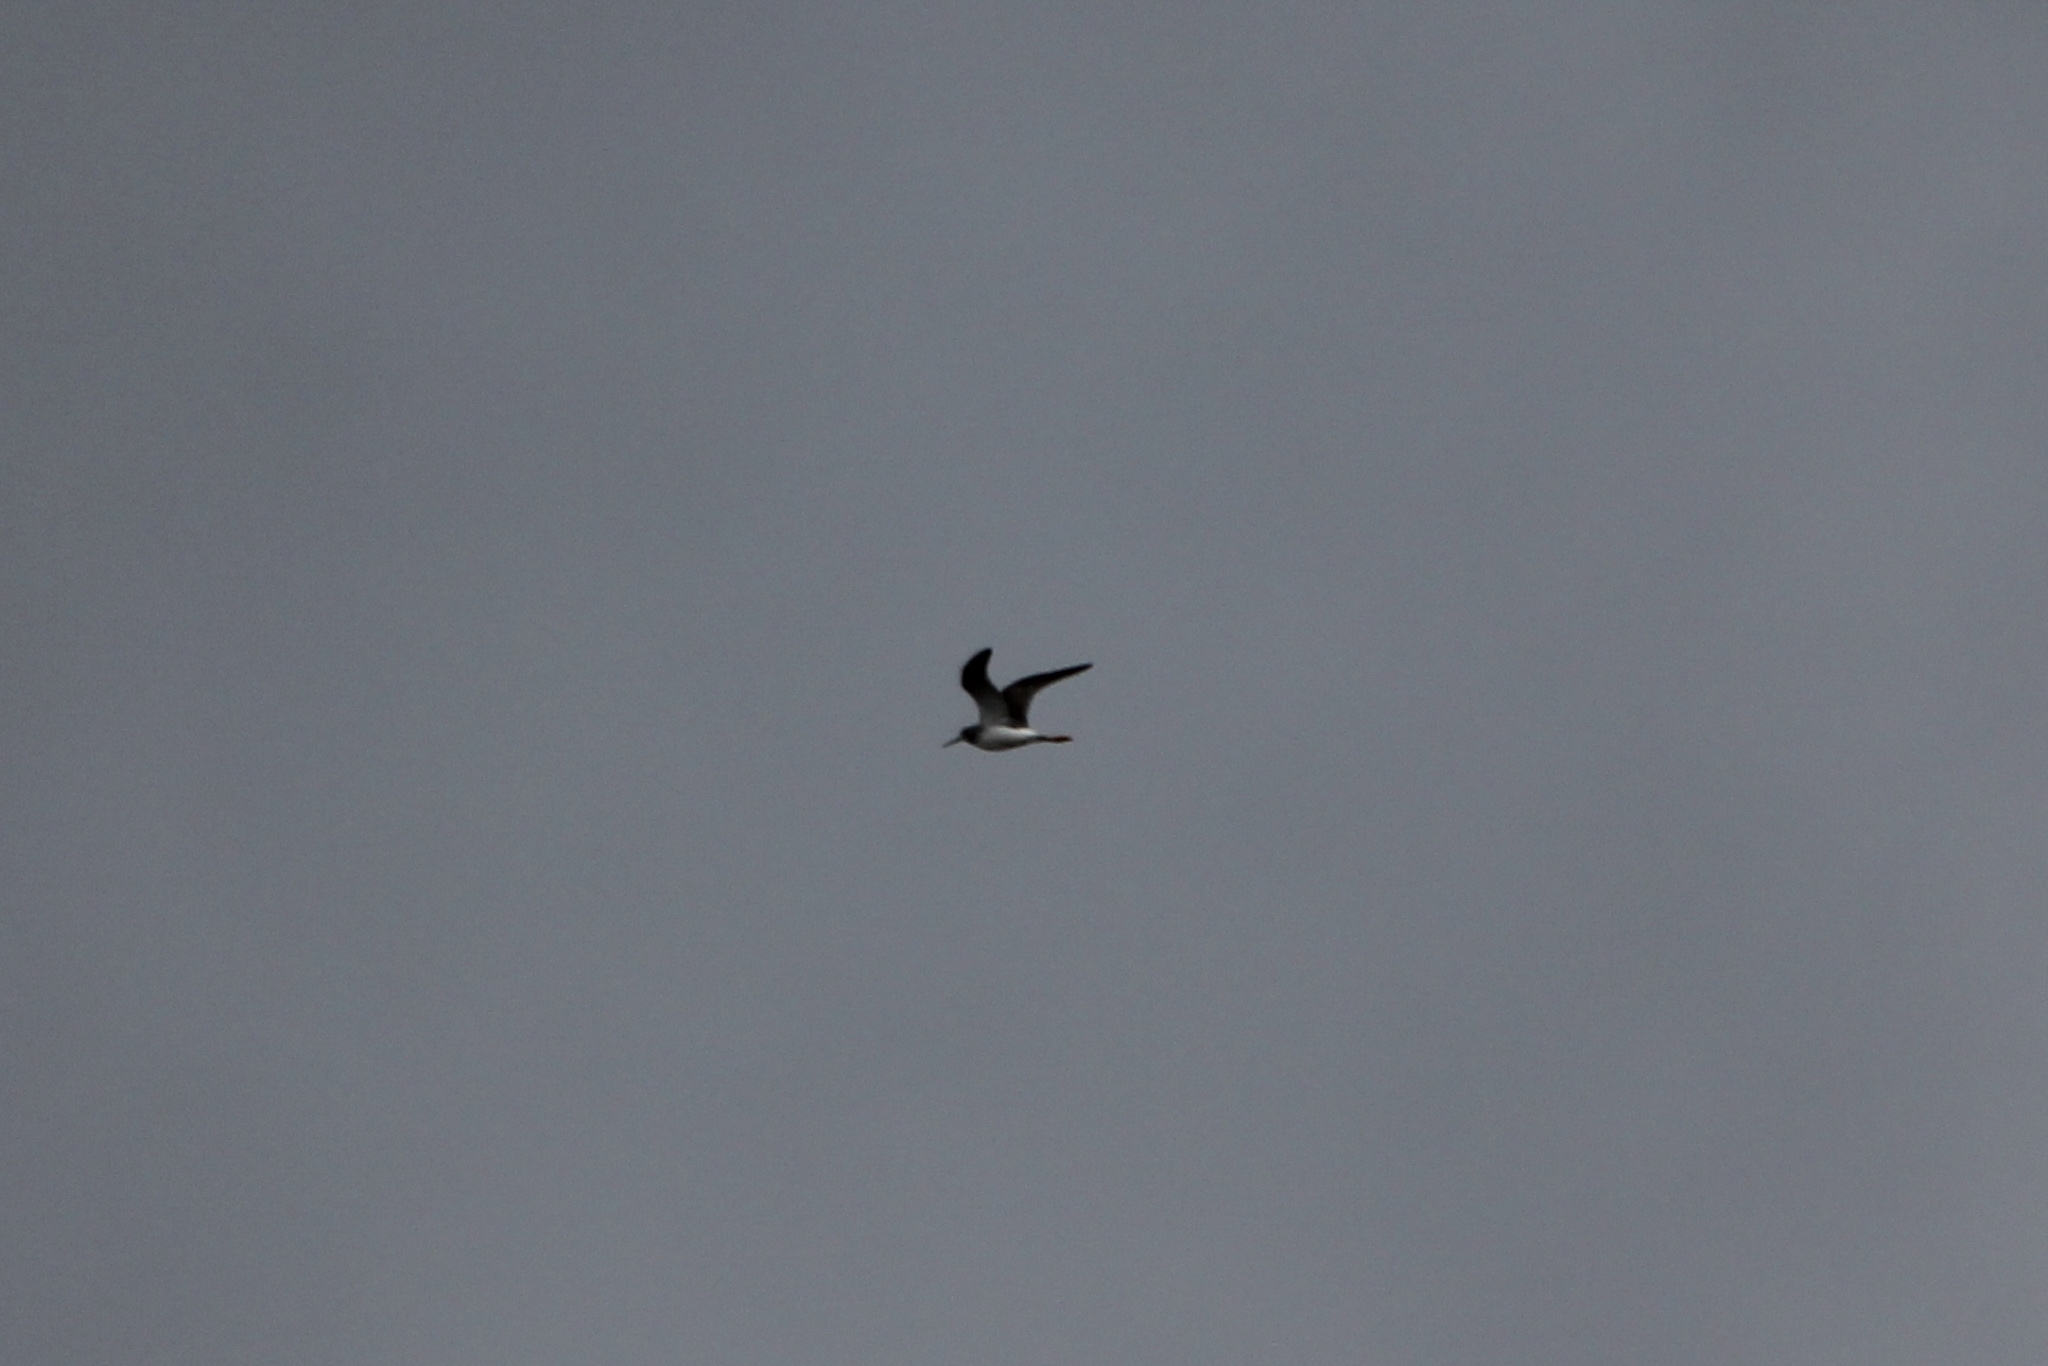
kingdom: Animalia
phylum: Chordata
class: Aves
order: Charadriiformes
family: Scolopacidae
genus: Tringa
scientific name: Tringa melanoleuca
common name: Greater yellowlegs
